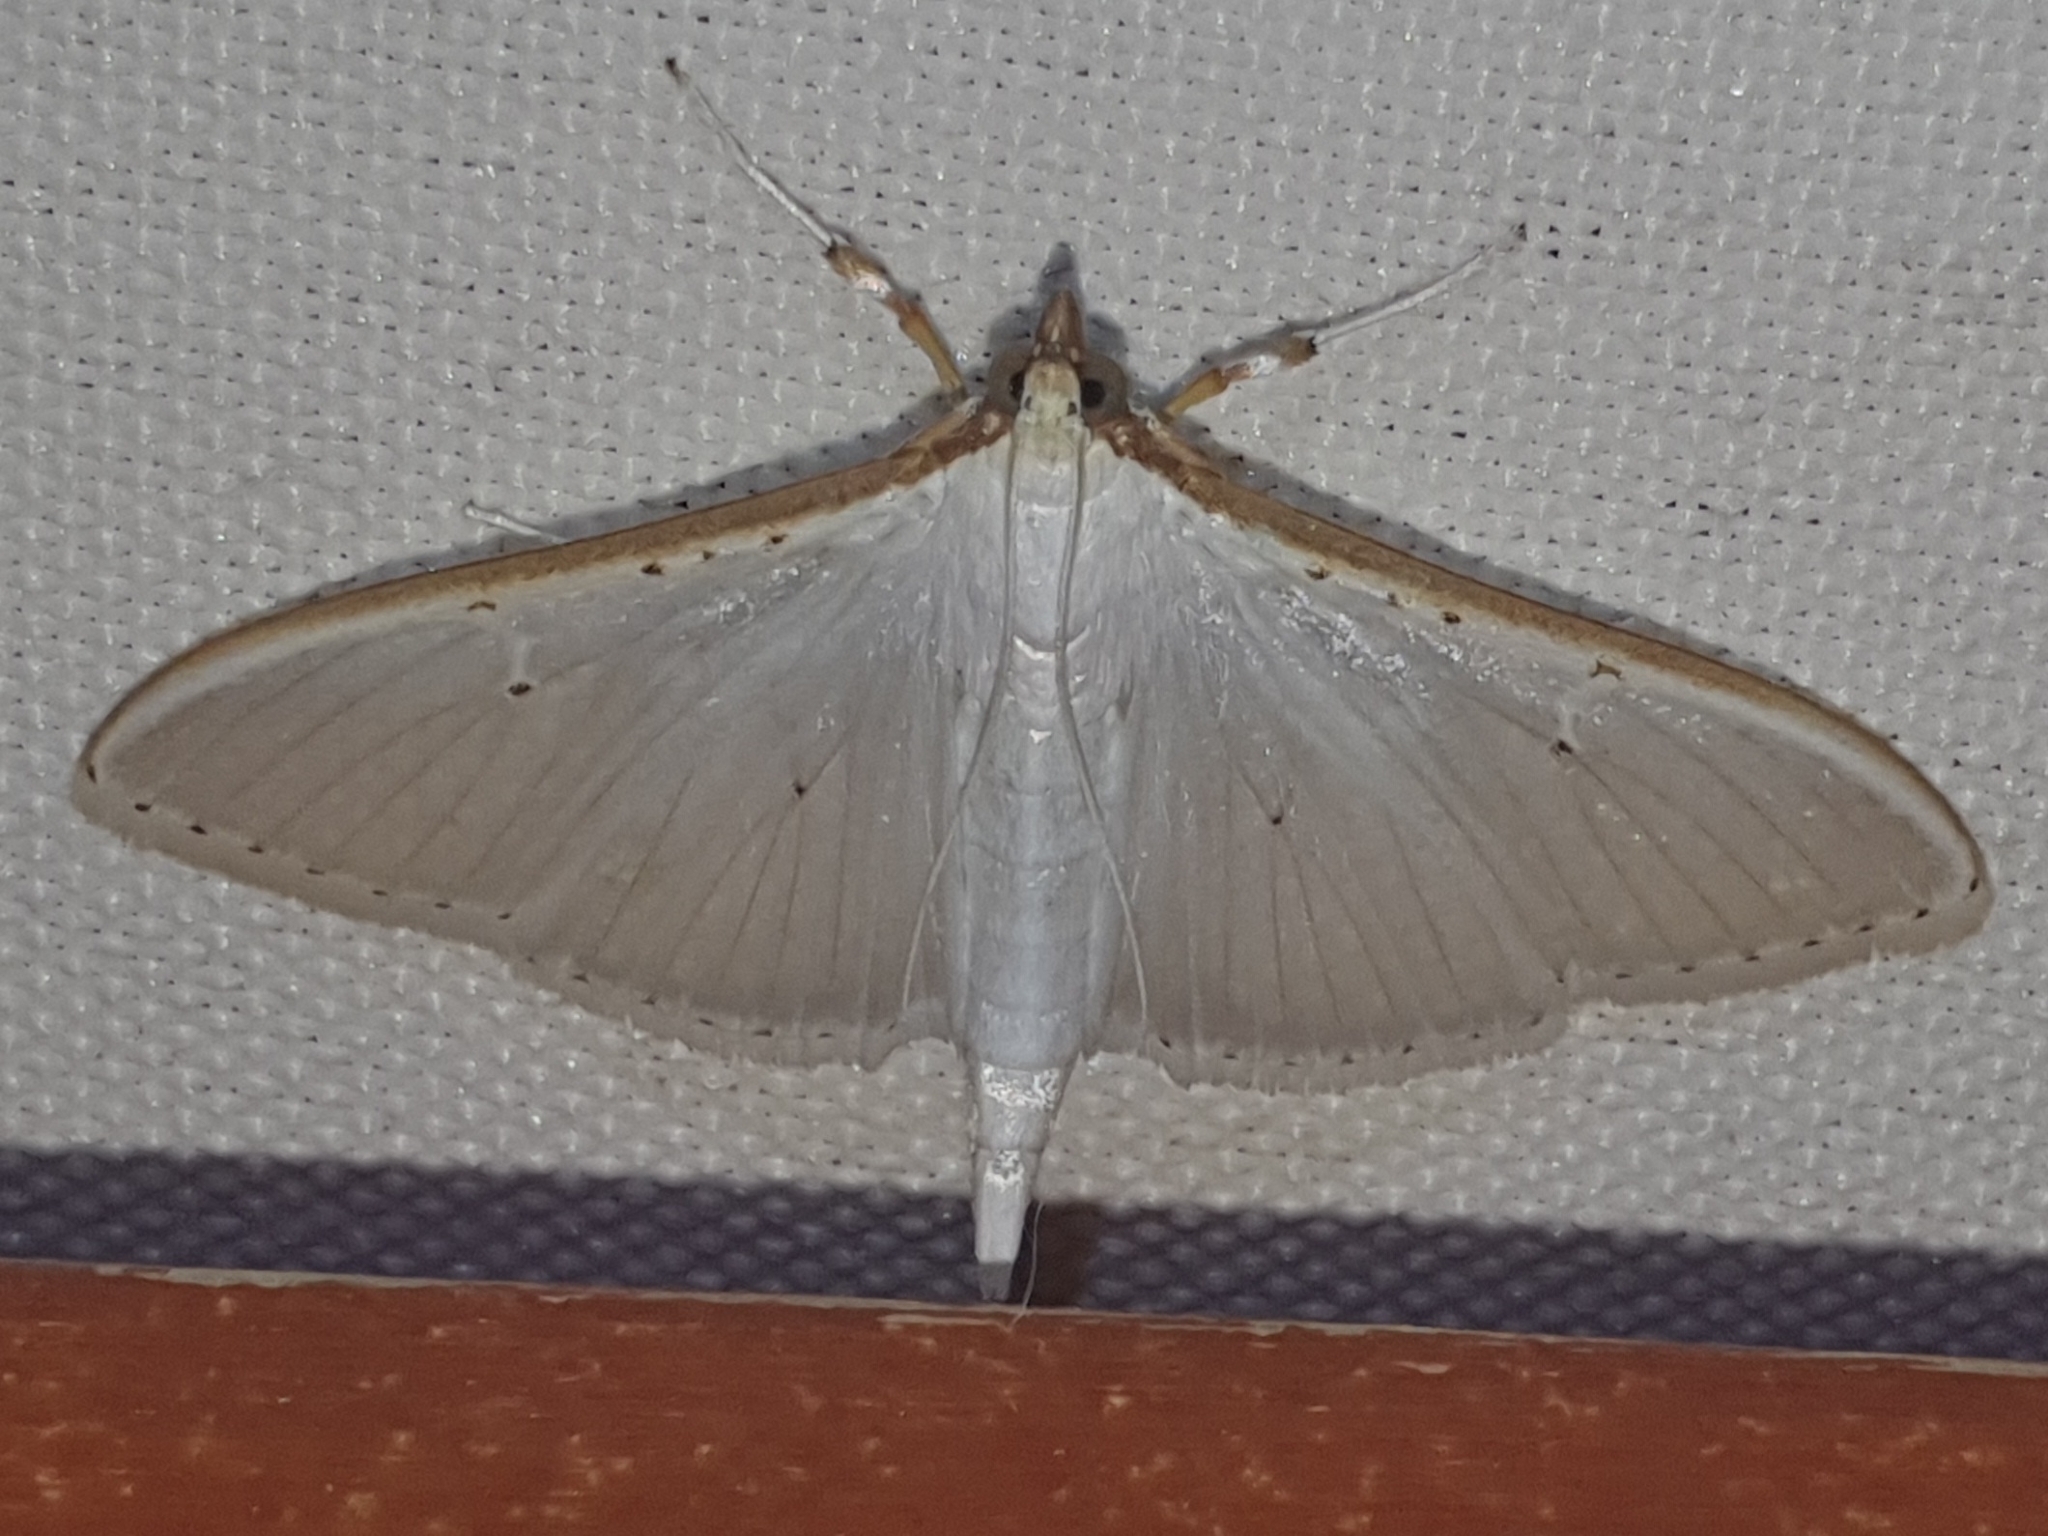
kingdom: Animalia
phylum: Arthropoda
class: Insecta
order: Lepidoptera
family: Crambidae
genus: Palpita
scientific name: Palpita vitrealis
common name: Olive-tree pearl
